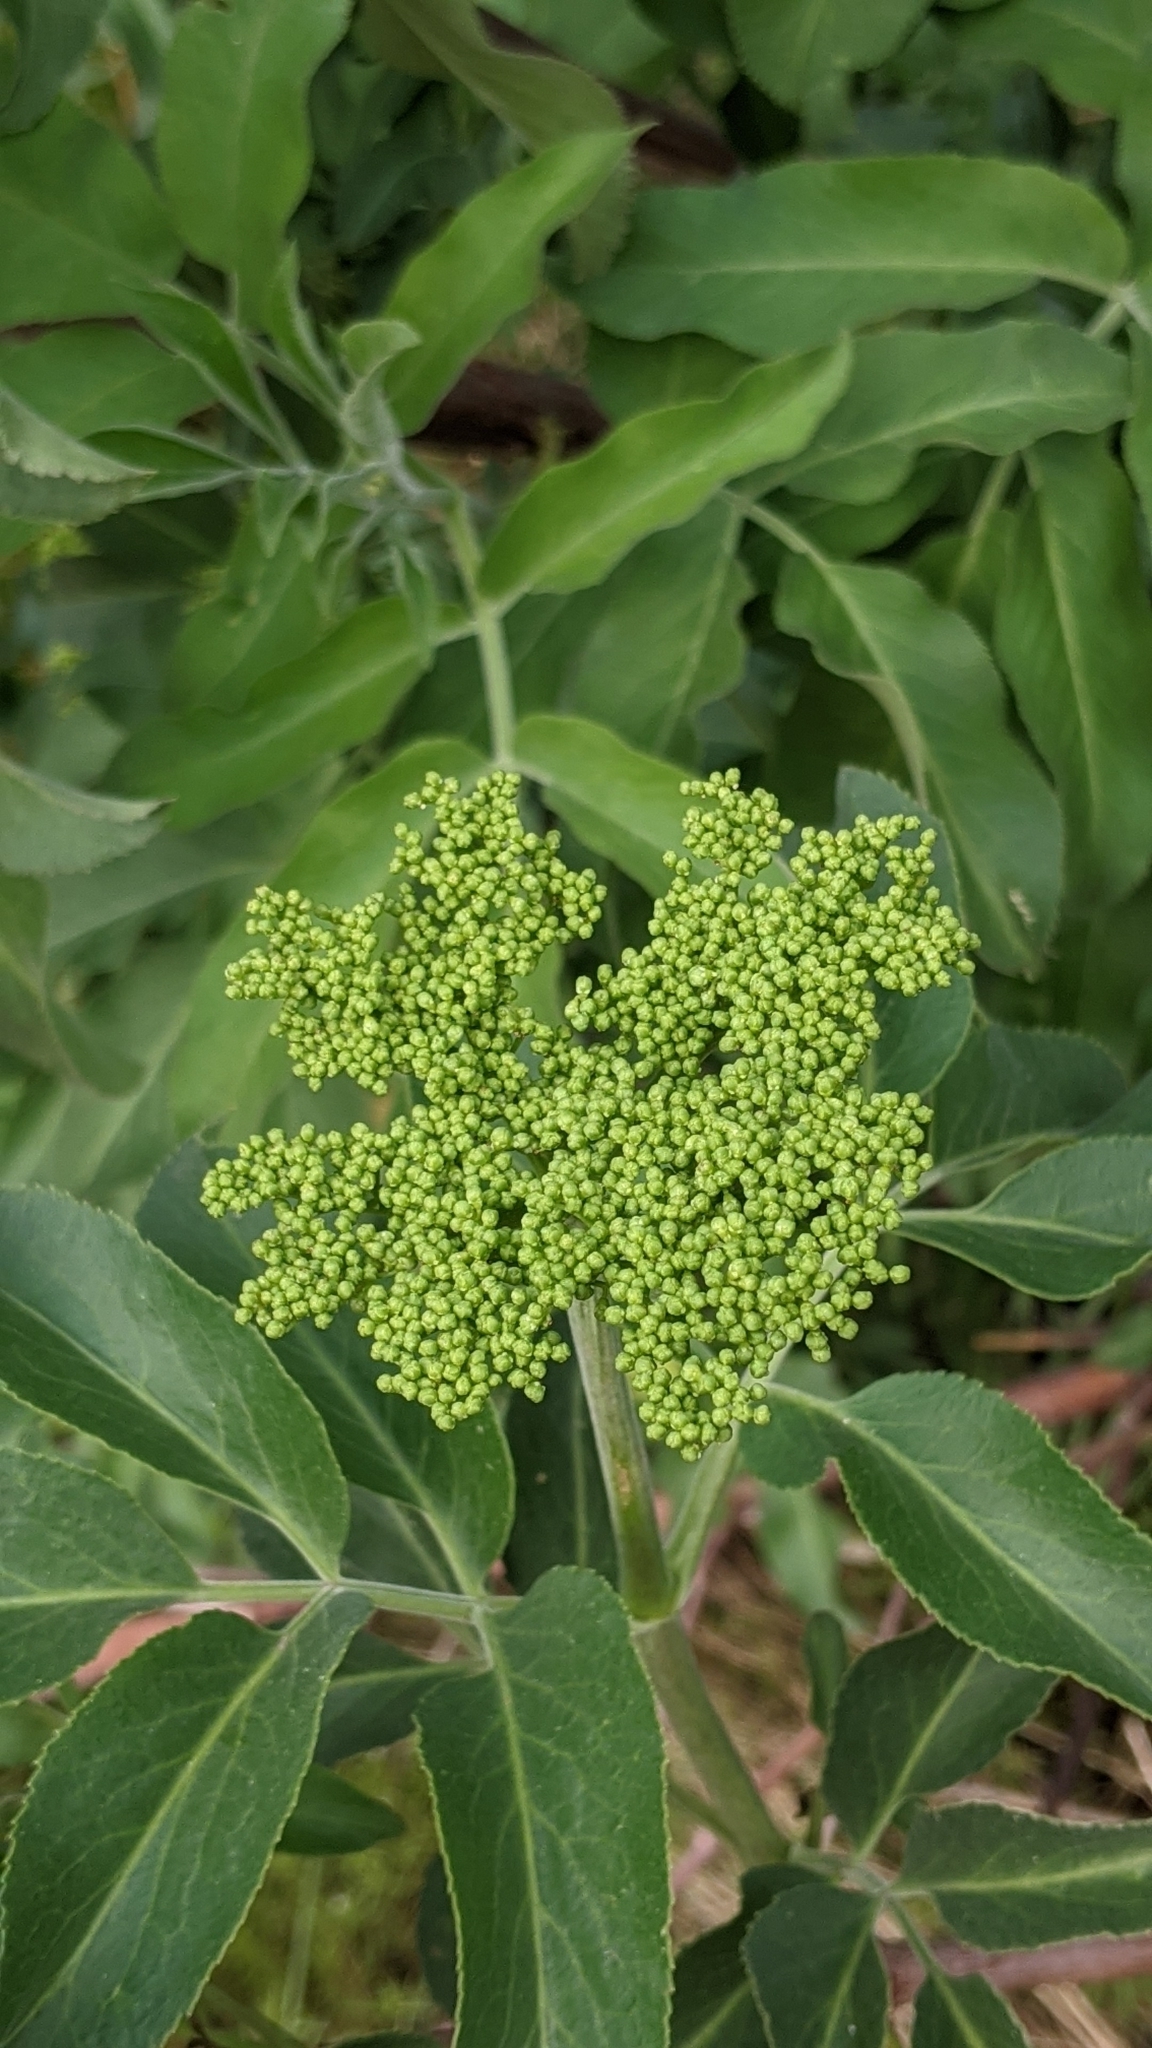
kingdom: Plantae
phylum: Tracheophyta
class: Magnoliopsida
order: Dipsacales
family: Viburnaceae
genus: Sambucus
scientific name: Sambucus cerulea
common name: Blue elder
